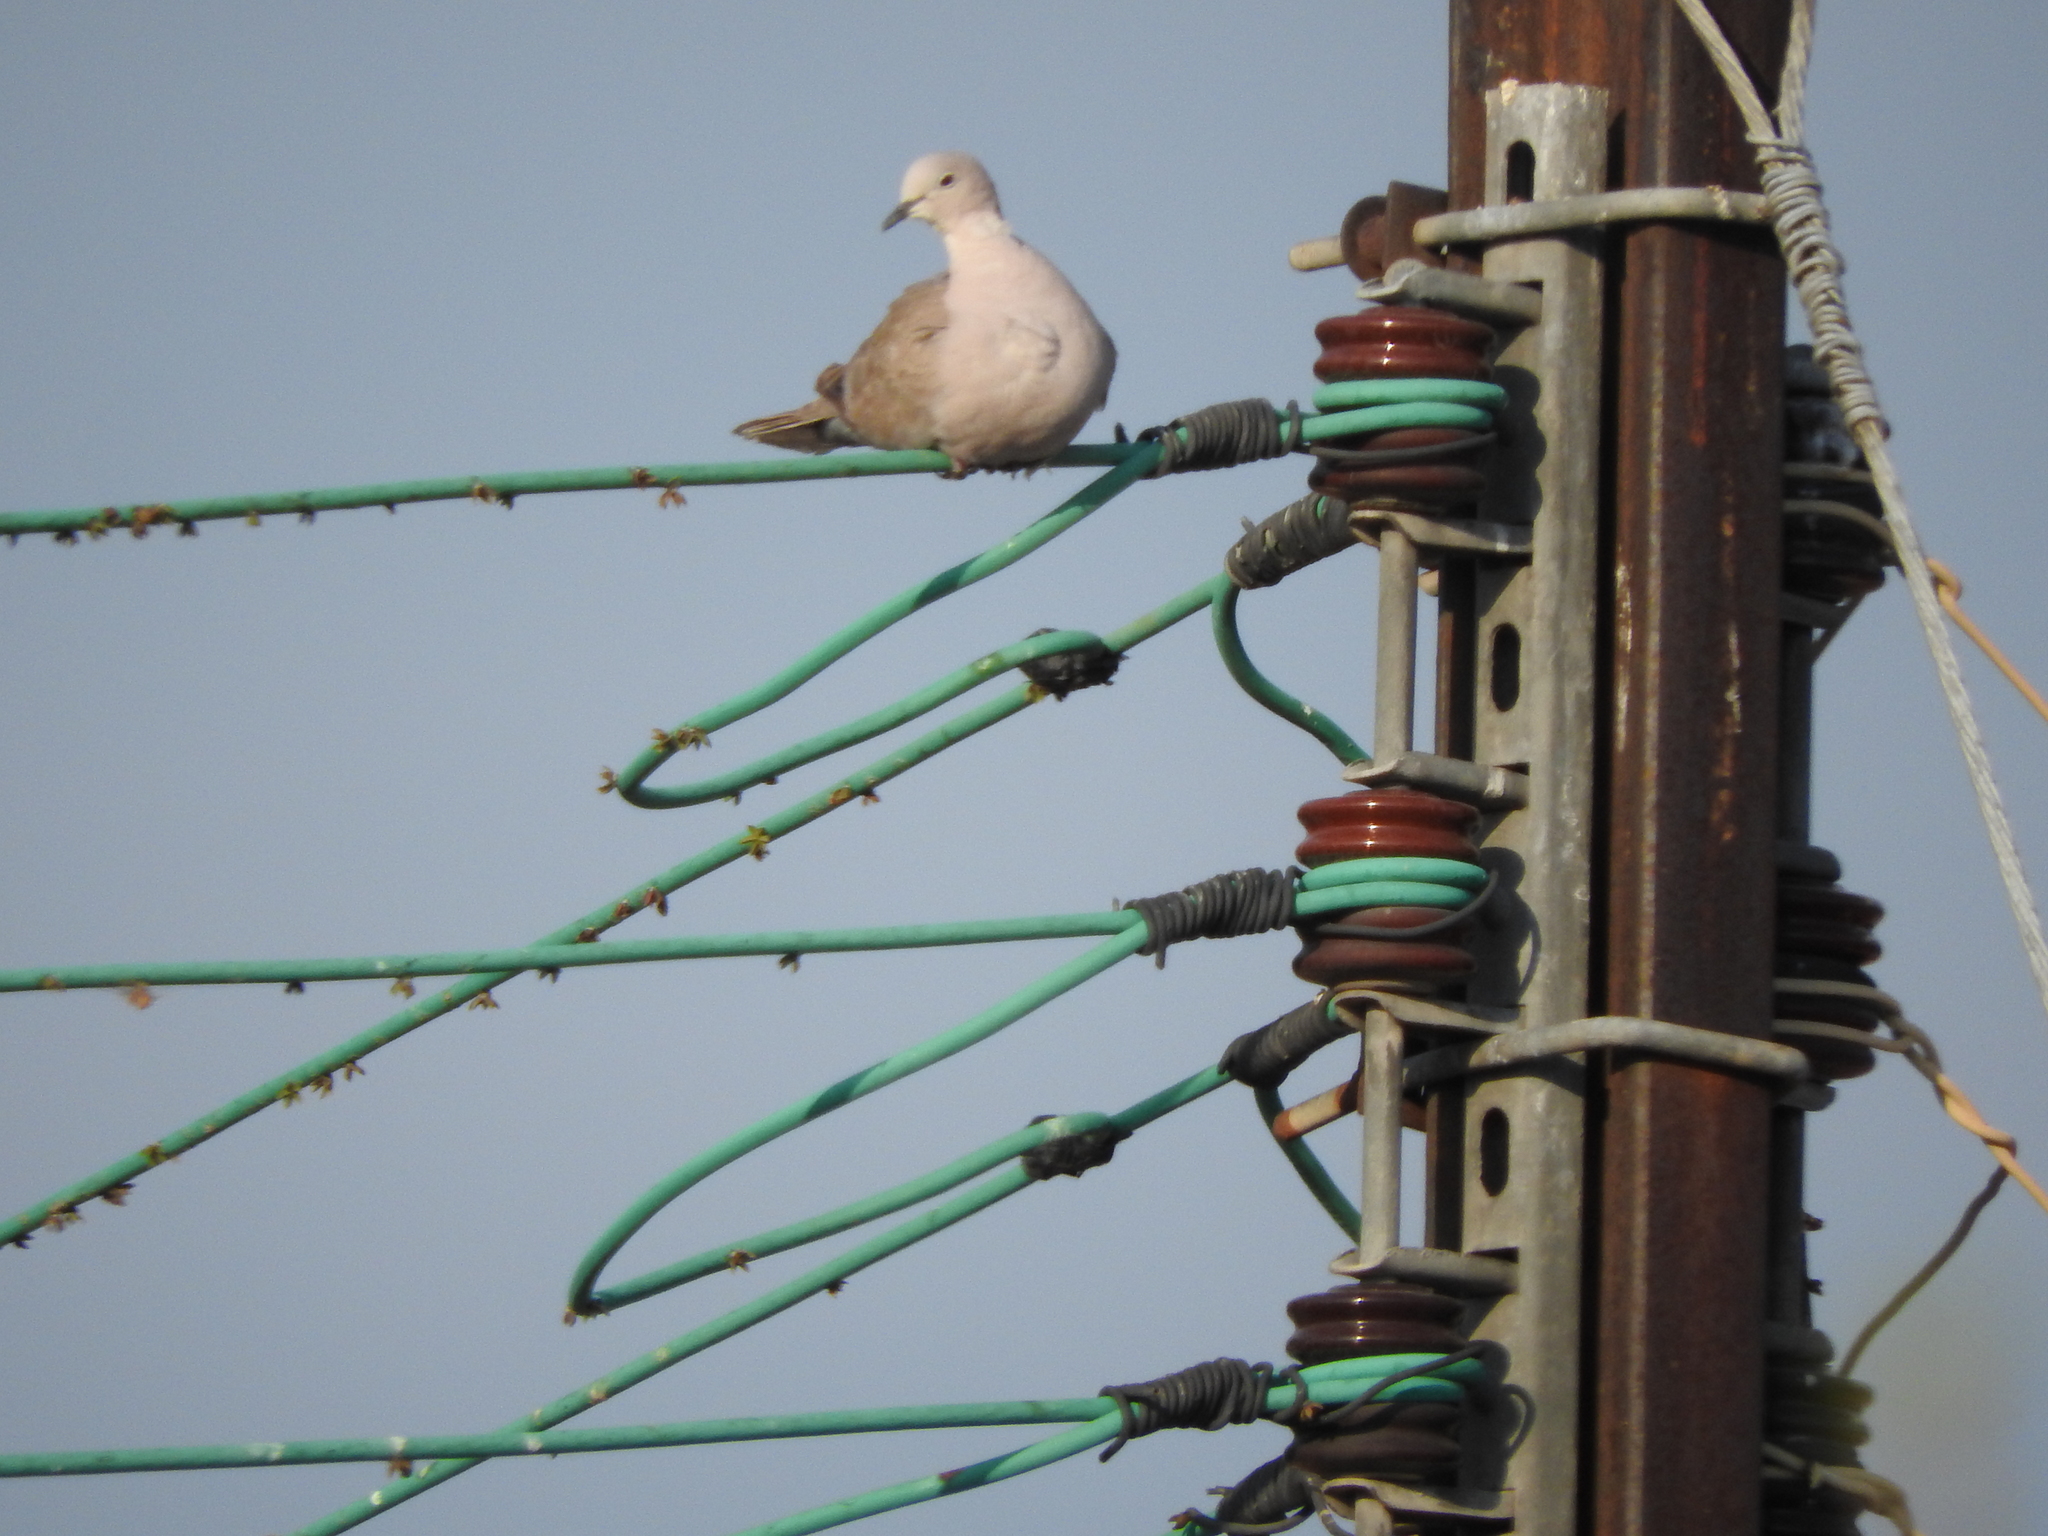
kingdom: Animalia
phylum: Chordata
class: Aves
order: Columbiformes
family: Columbidae
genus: Streptopelia
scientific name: Streptopelia decaocto
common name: Eurasian collared dove
